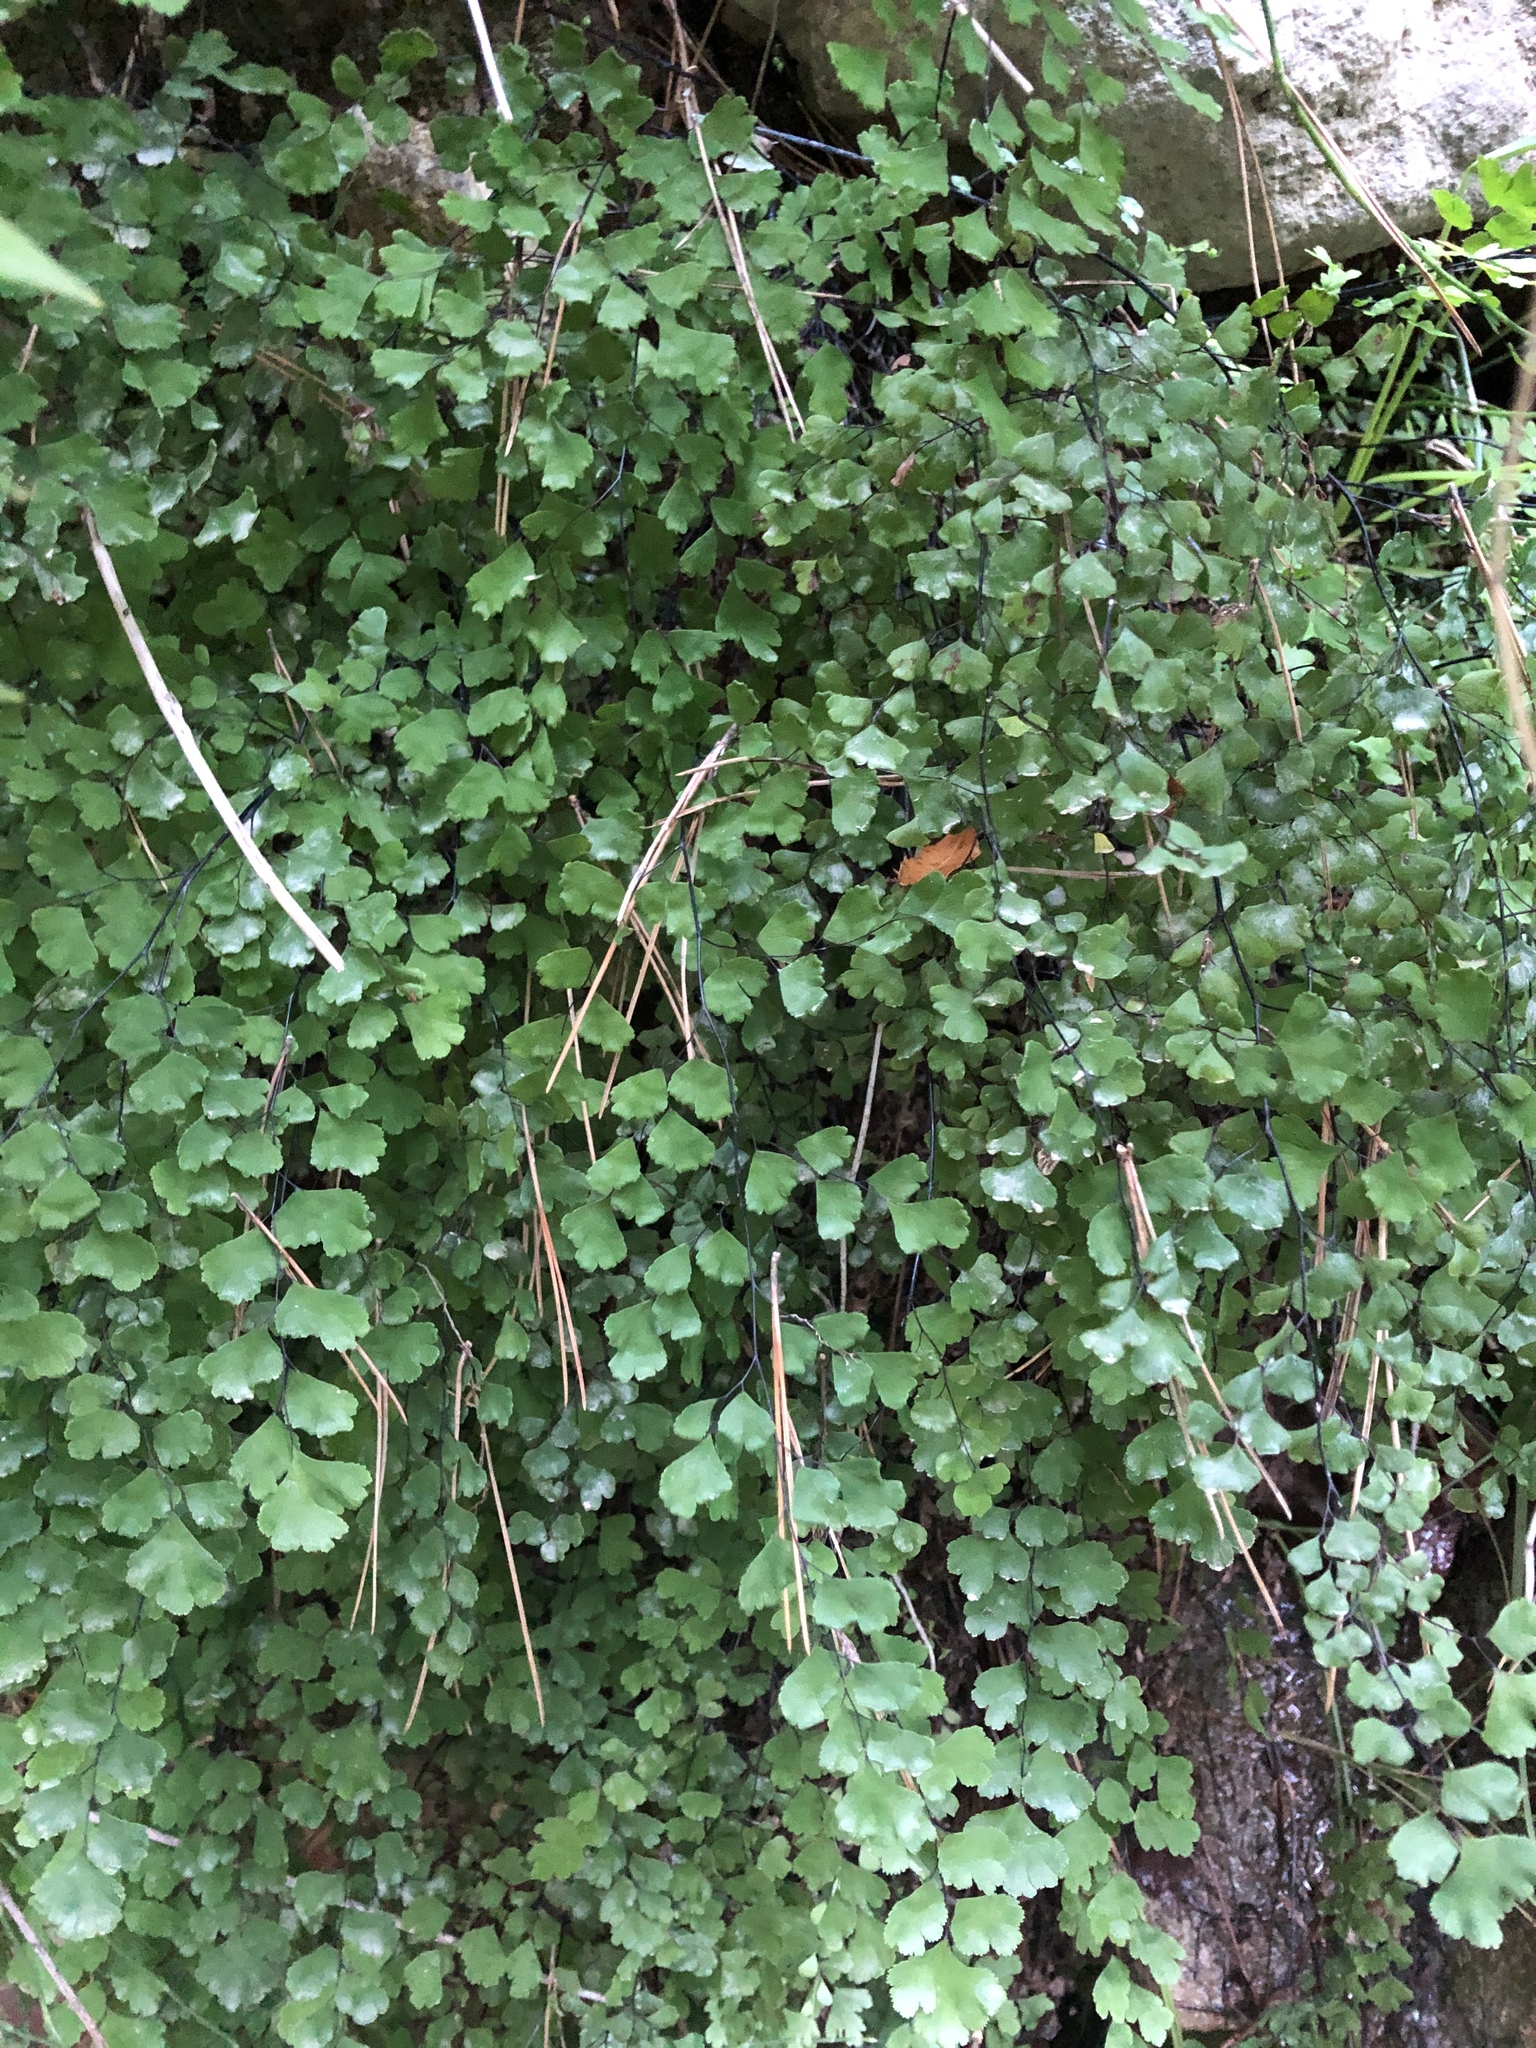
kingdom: Plantae
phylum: Tracheophyta
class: Polypodiopsida
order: Polypodiales
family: Pteridaceae
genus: Adiantum
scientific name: Adiantum capillus-veneris
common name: Maidenhair fern
